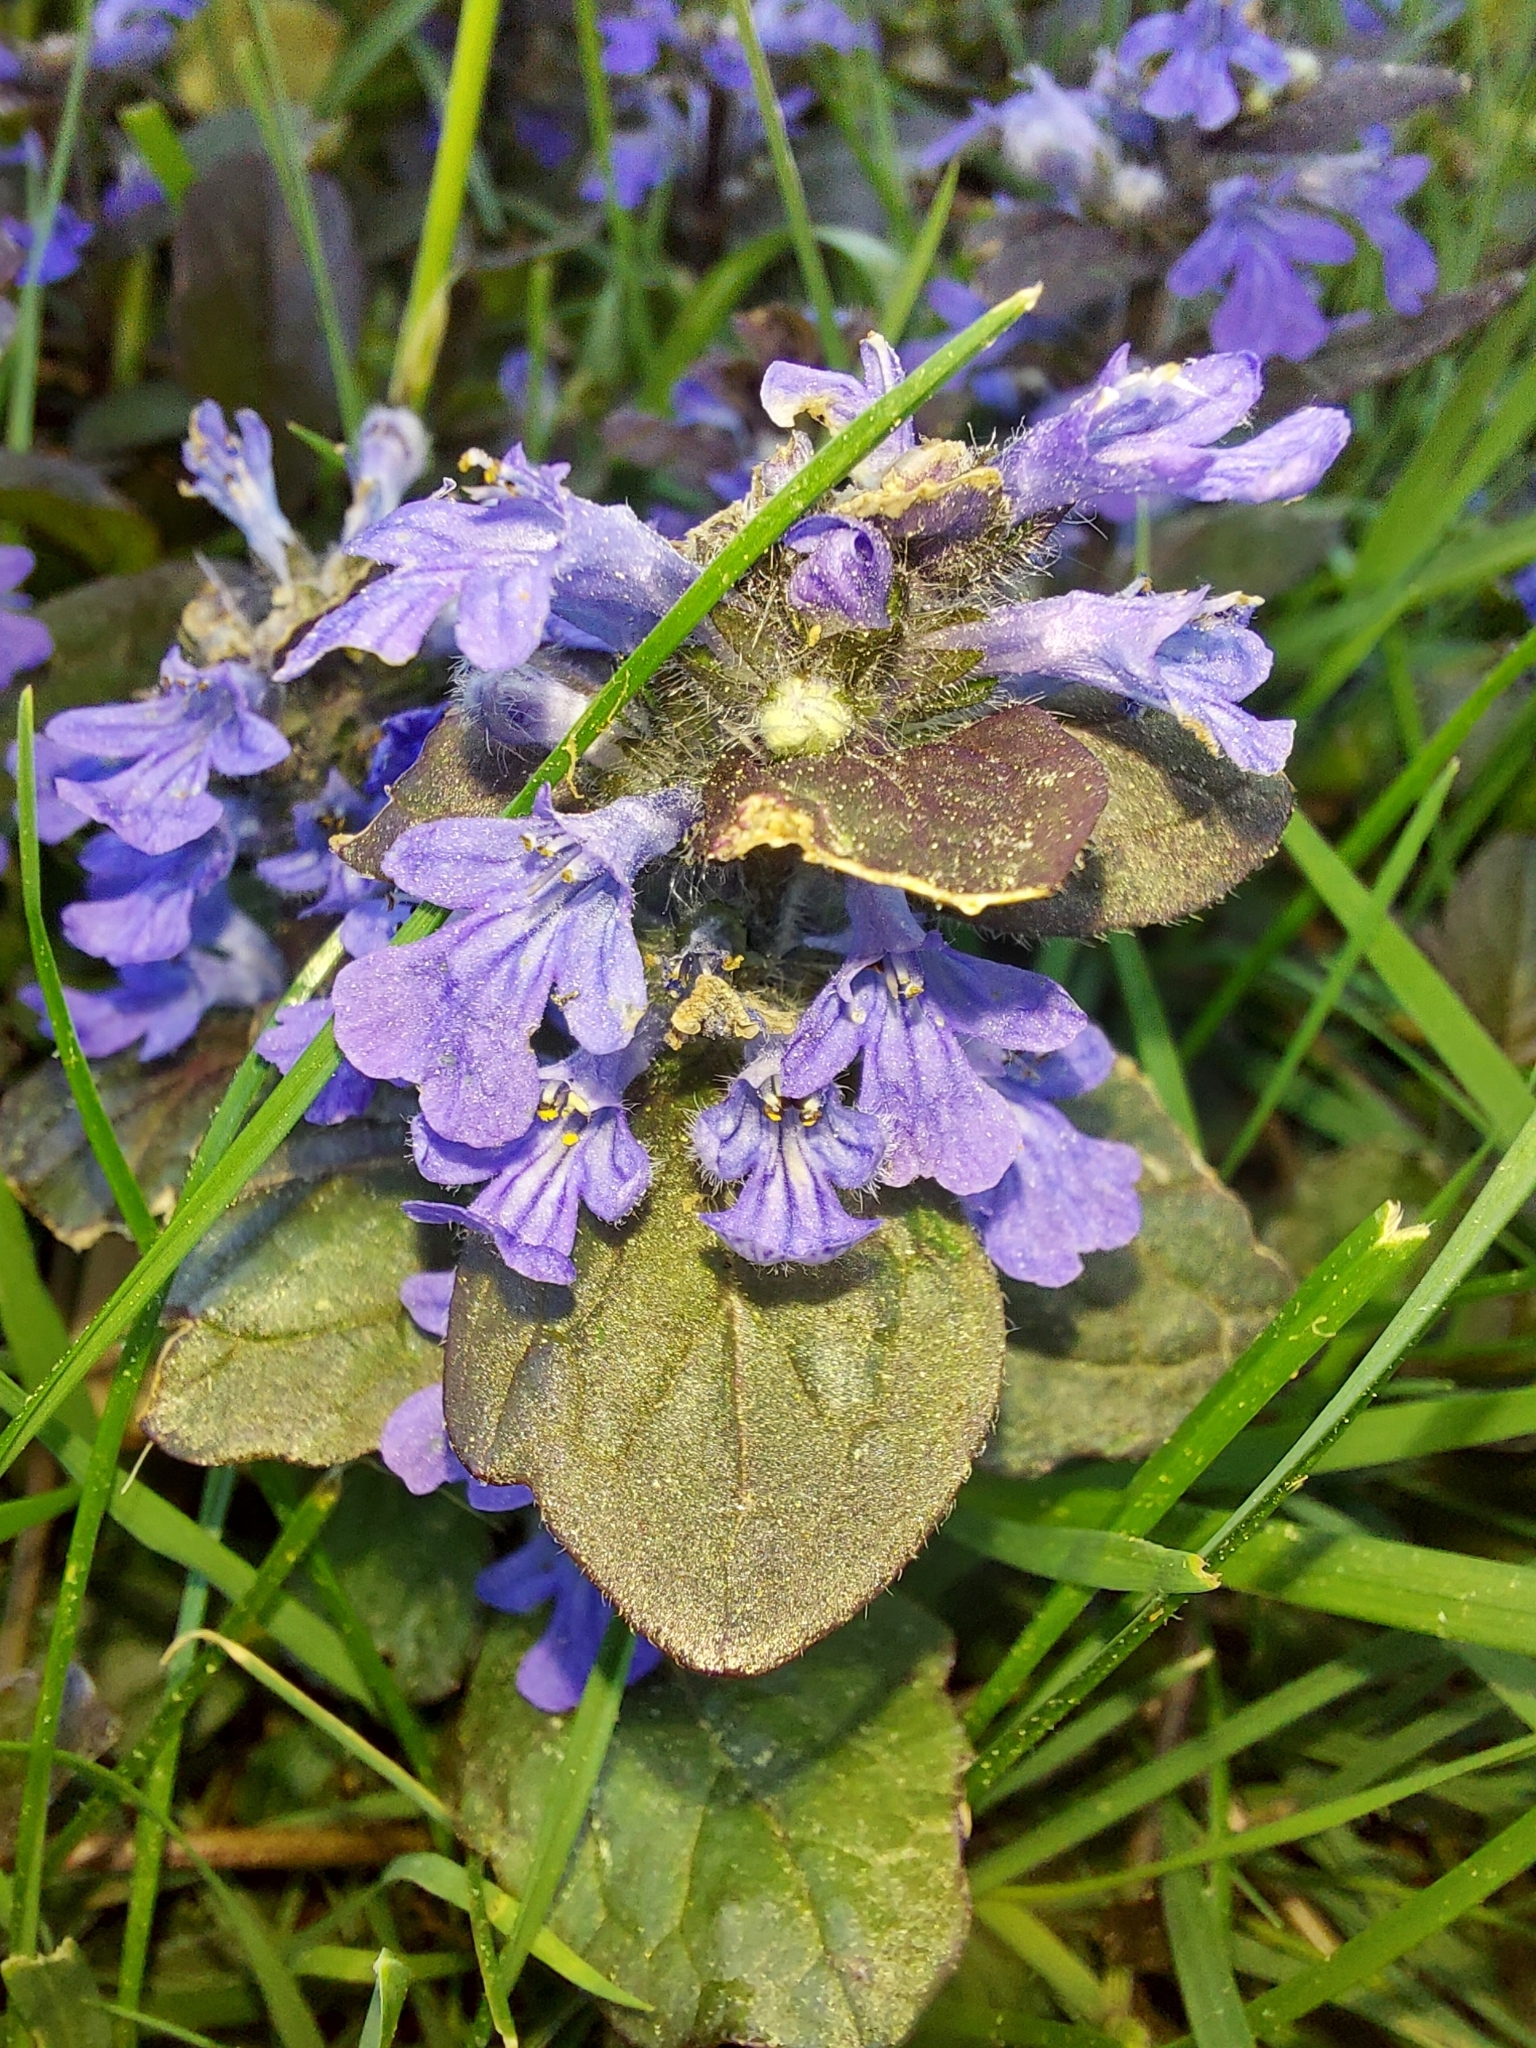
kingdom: Plantae
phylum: Tracheophyta
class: Magnoliopsida
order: Lamiales
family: Lamiaceae
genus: Ajuga
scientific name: Ajuga reptans
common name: Bugle
